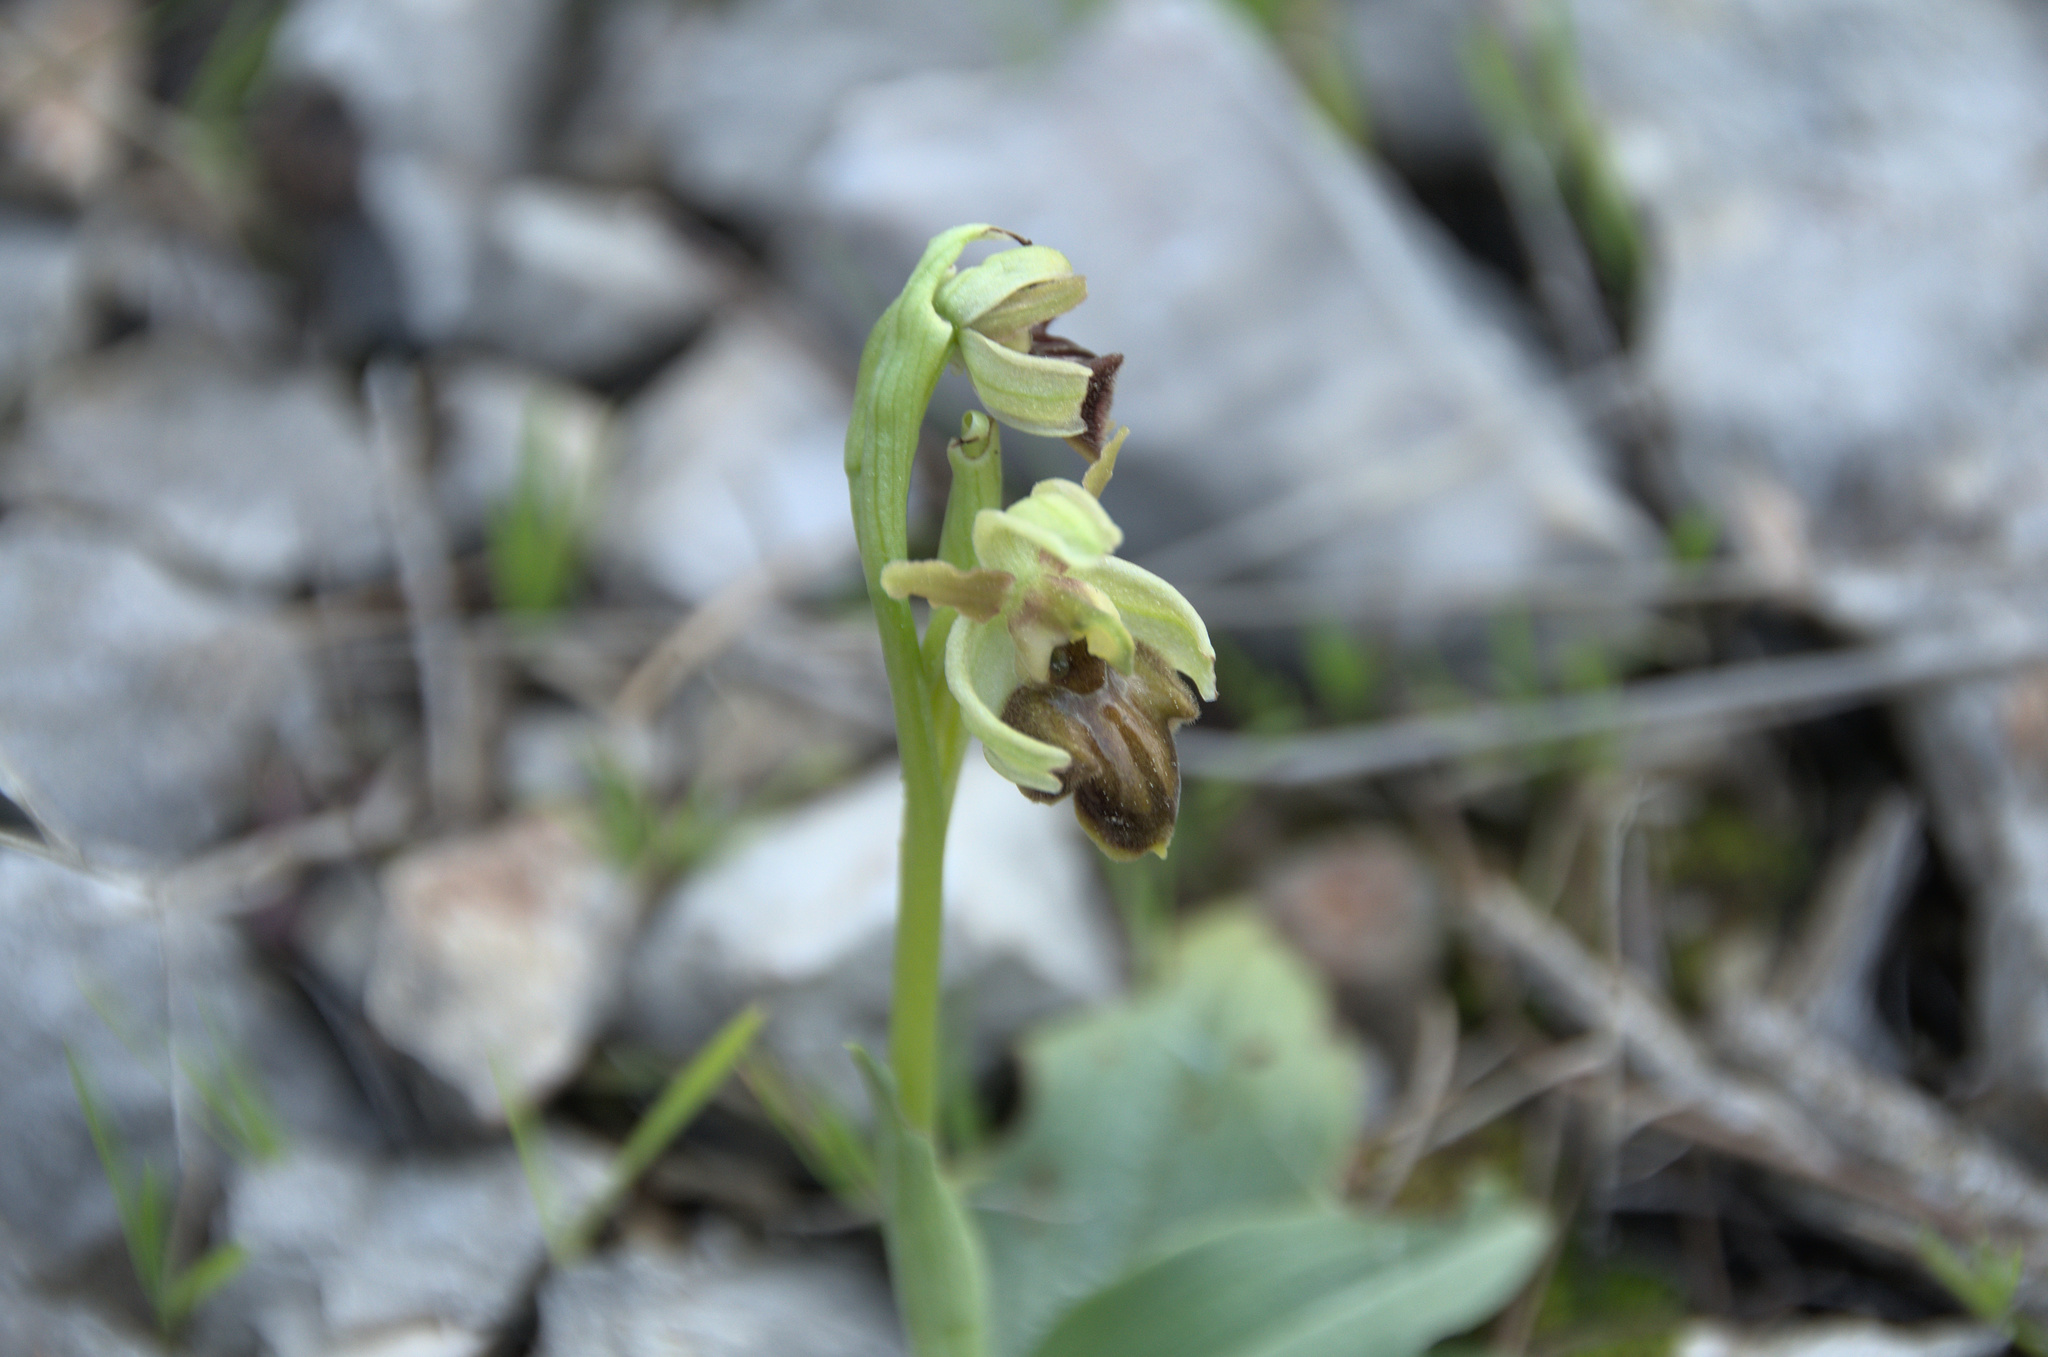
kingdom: Plantae
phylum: Tracheophyta
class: Liliopsida
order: Asparagales
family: Orchidaceae
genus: Ophrys
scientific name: Ophrys arachnitiformis
